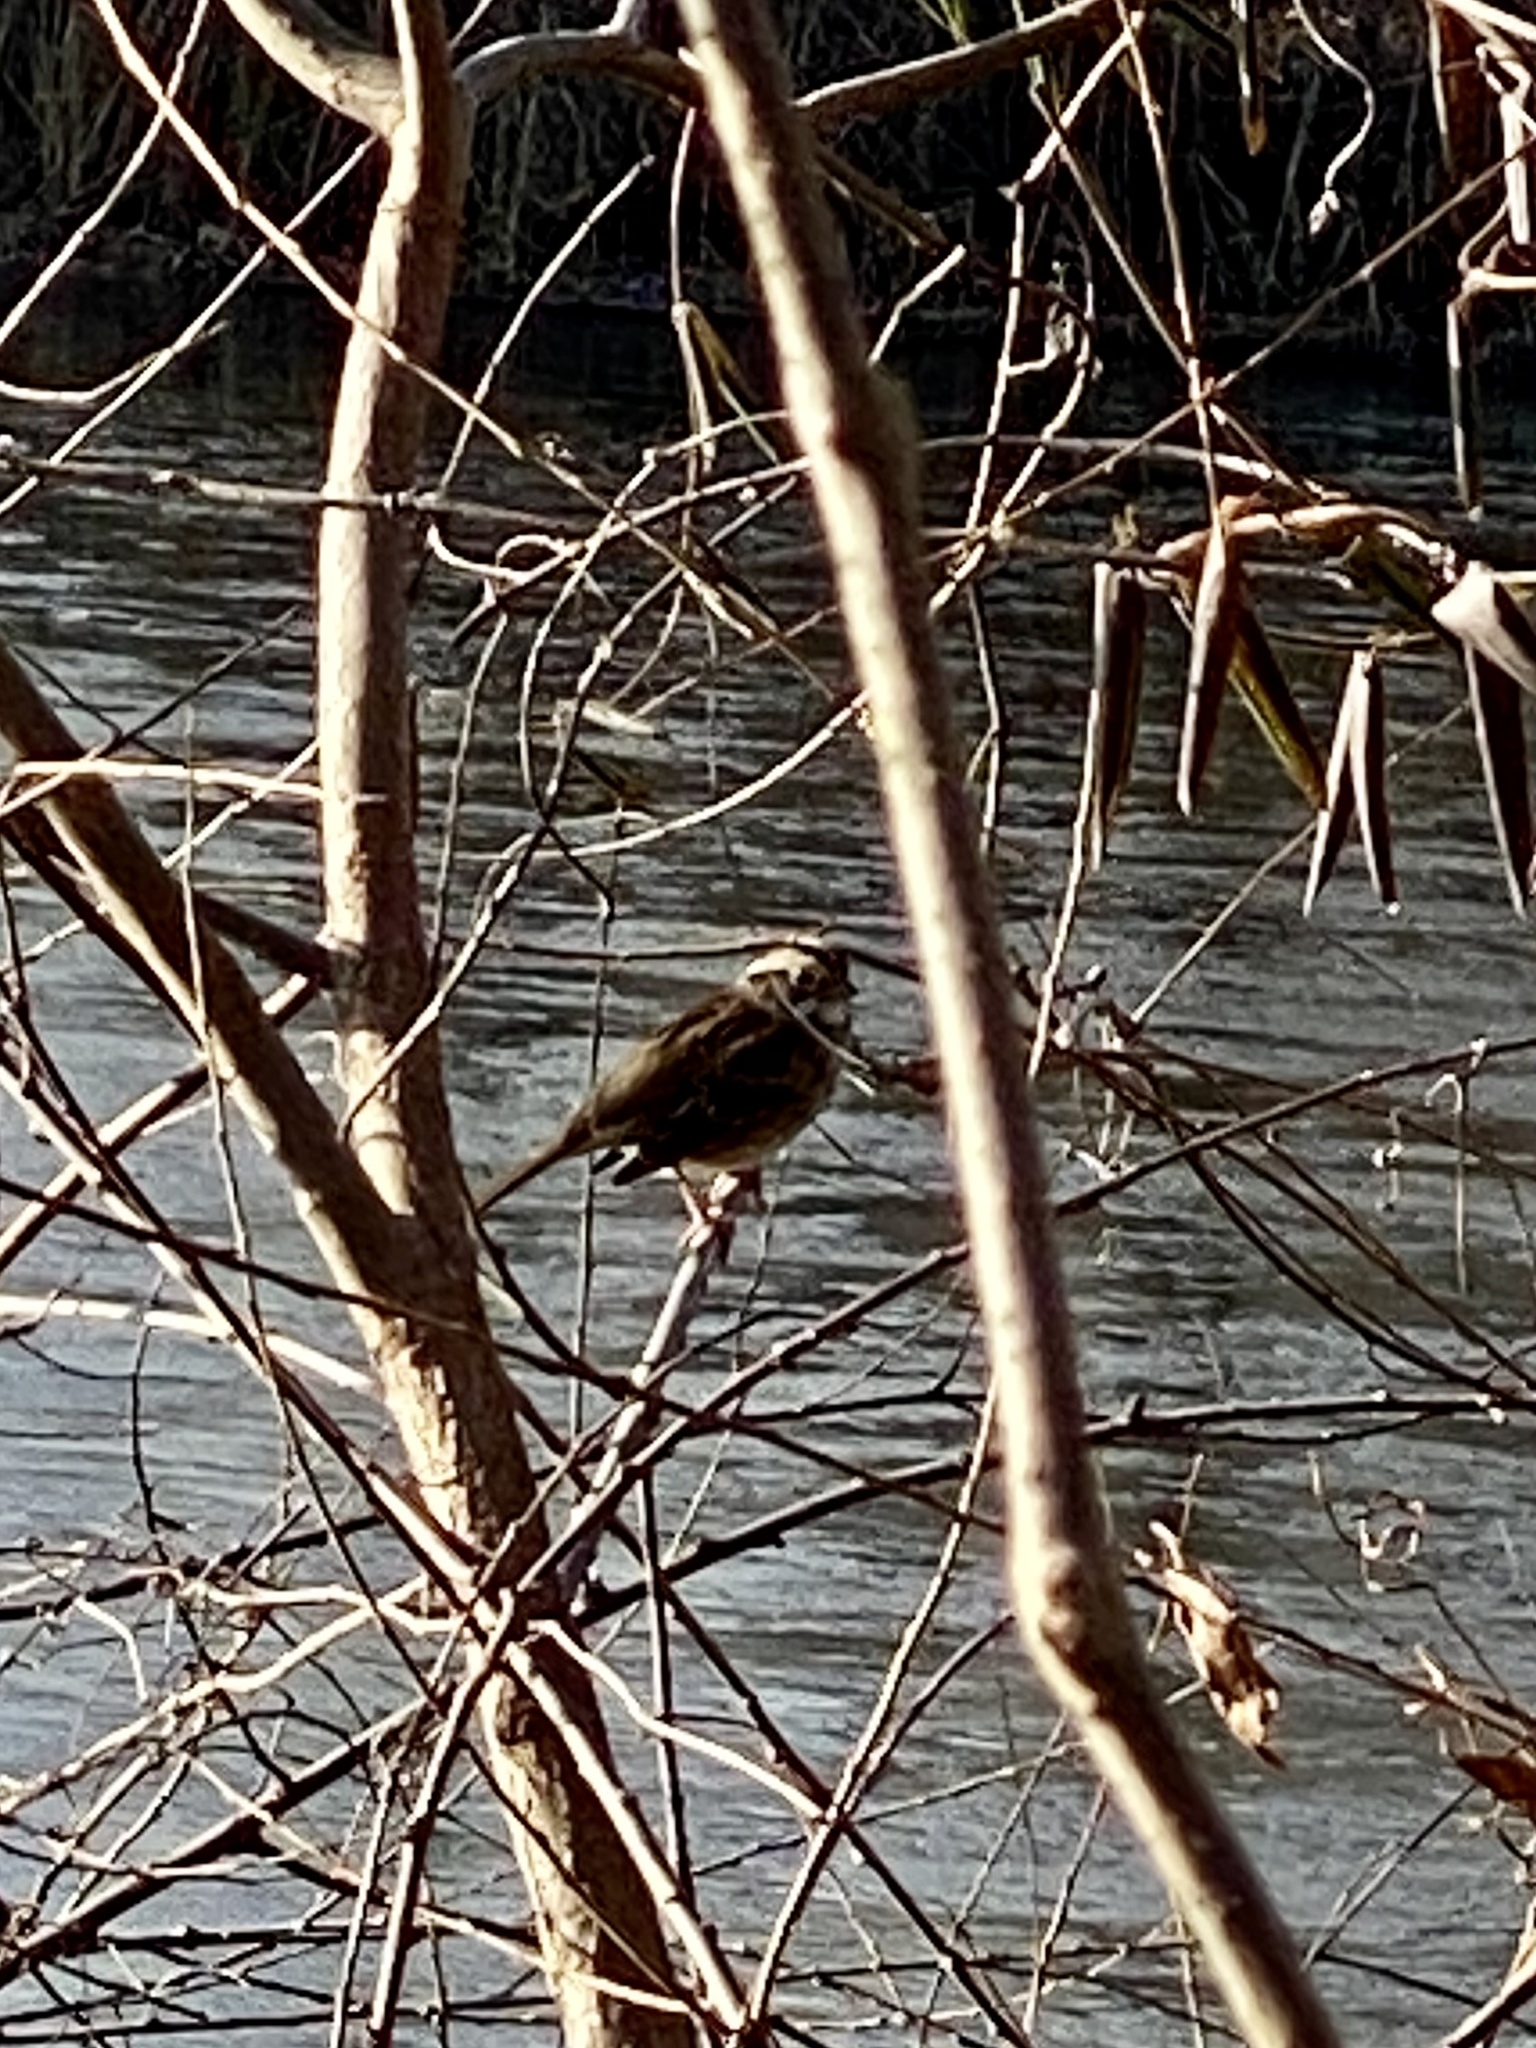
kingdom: Animalia
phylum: Chordata
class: Aves
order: Passeriformes
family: Passerellidae
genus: Zonotrichia
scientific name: Zonotrichia albicollis
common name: White-throated sparrow
